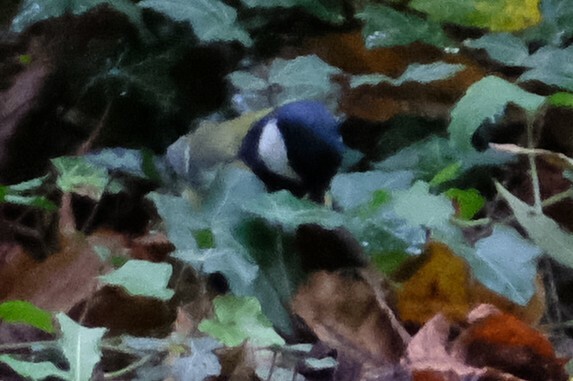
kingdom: Animalia
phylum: Chordata
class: Aves
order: Passeriformes
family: Paridae
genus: Parus
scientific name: Parus major
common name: Great tit
